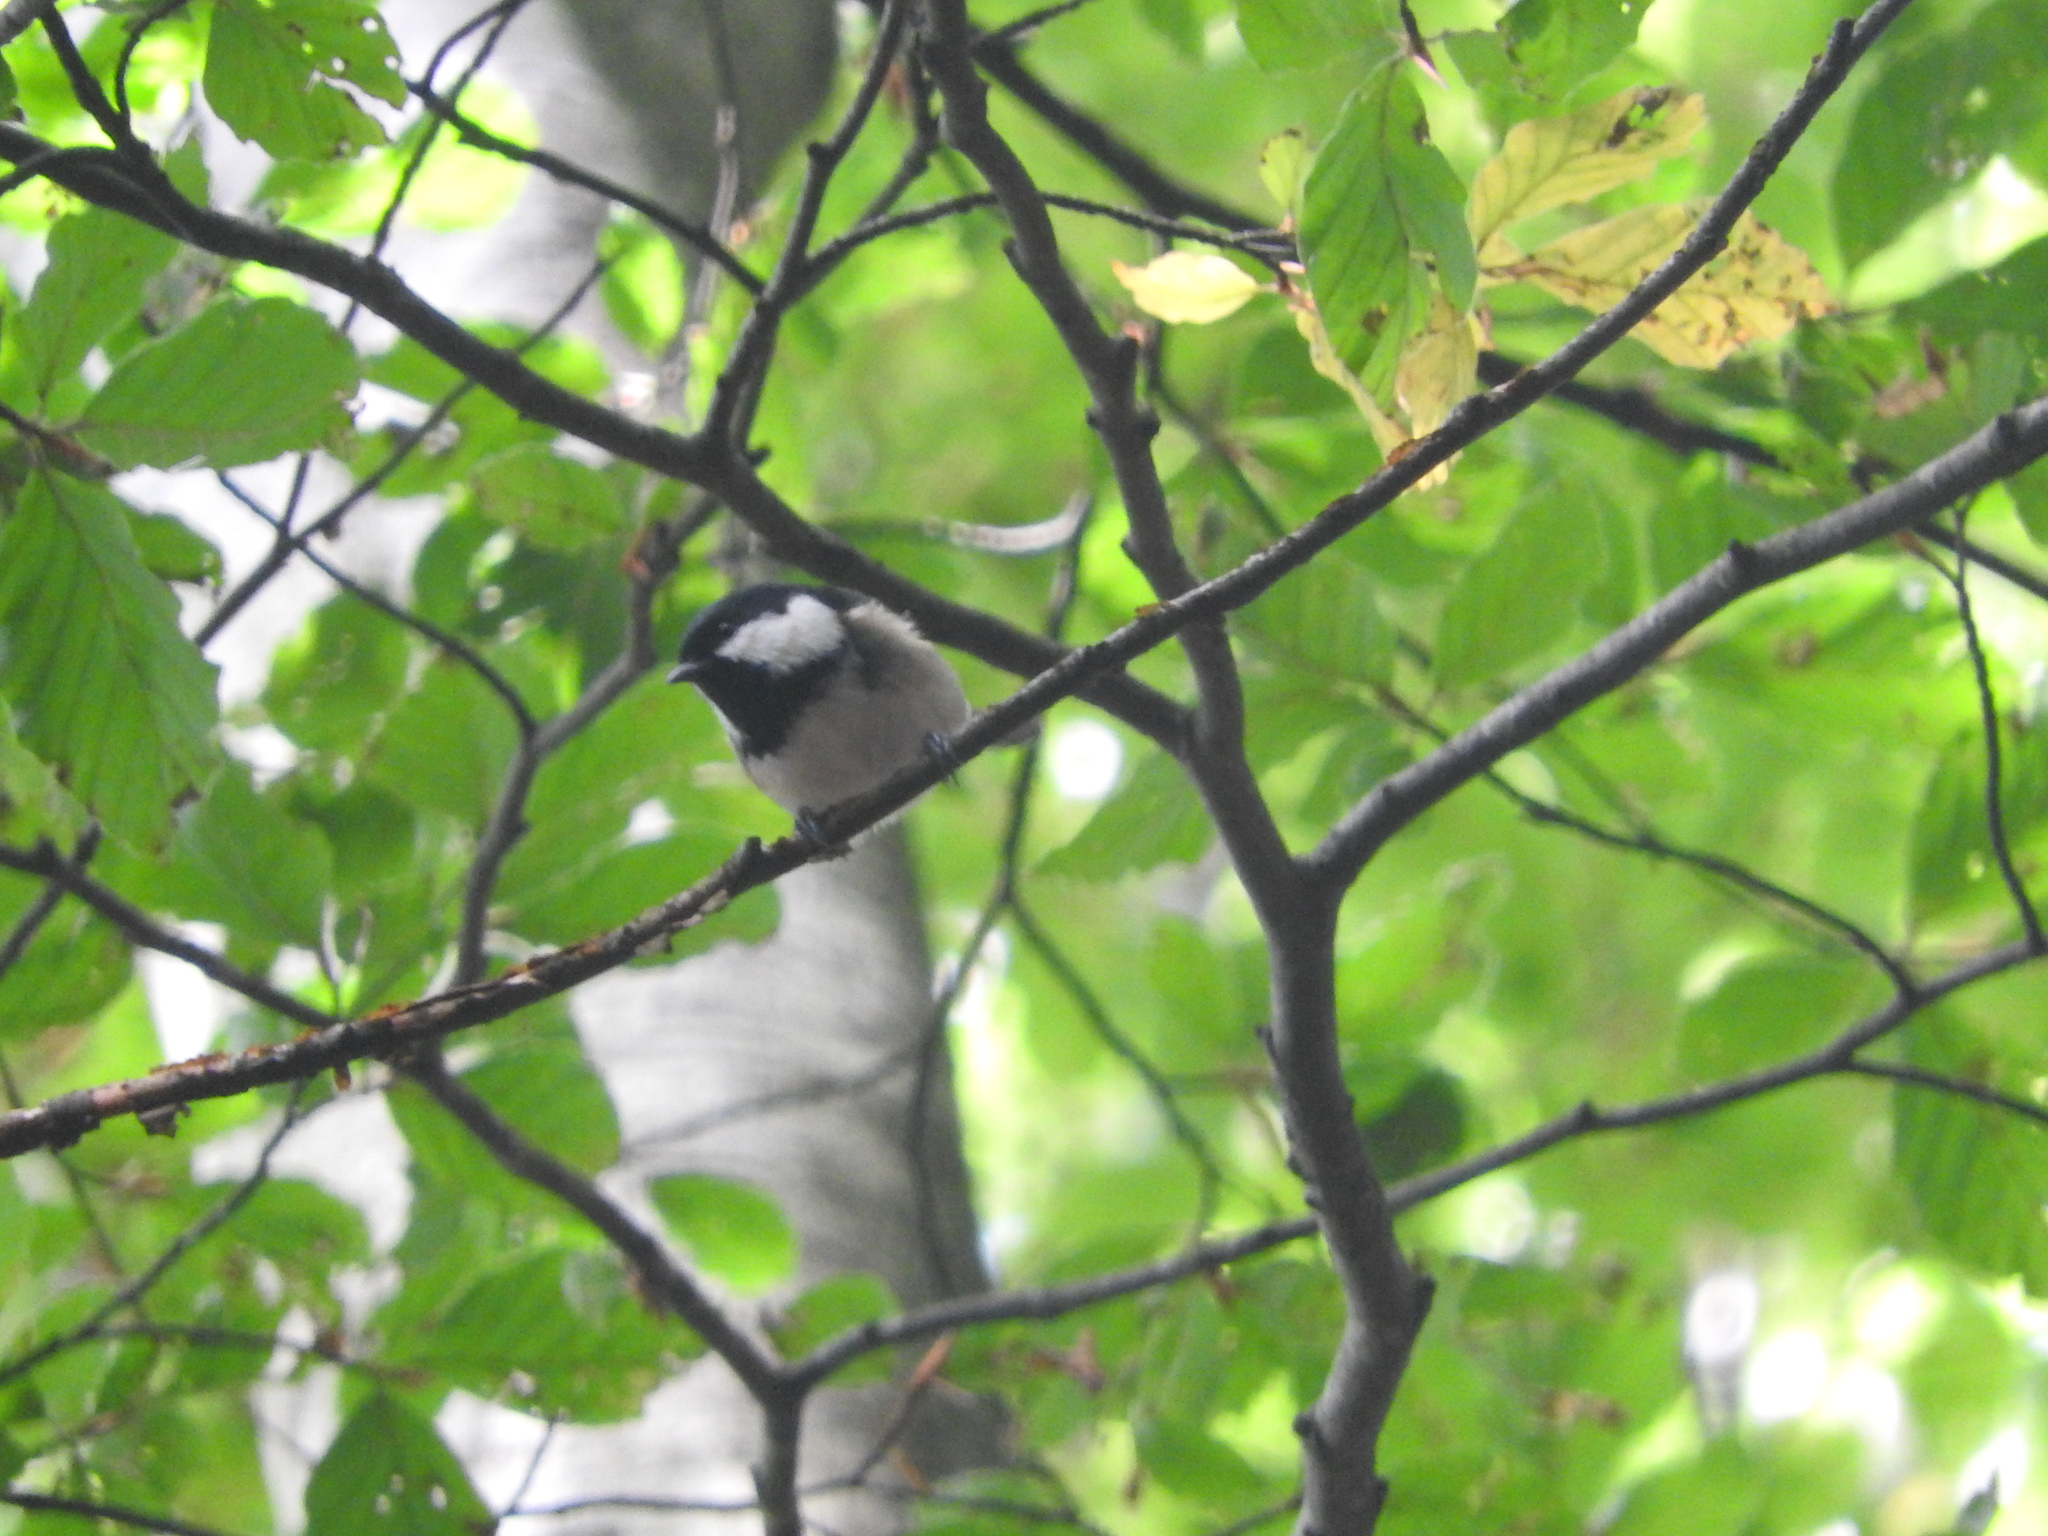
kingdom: Animalia
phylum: Chordata
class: Aves
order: Passeriformes
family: Paridae
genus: Periparus
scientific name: Periparus ater
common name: Coal tit
